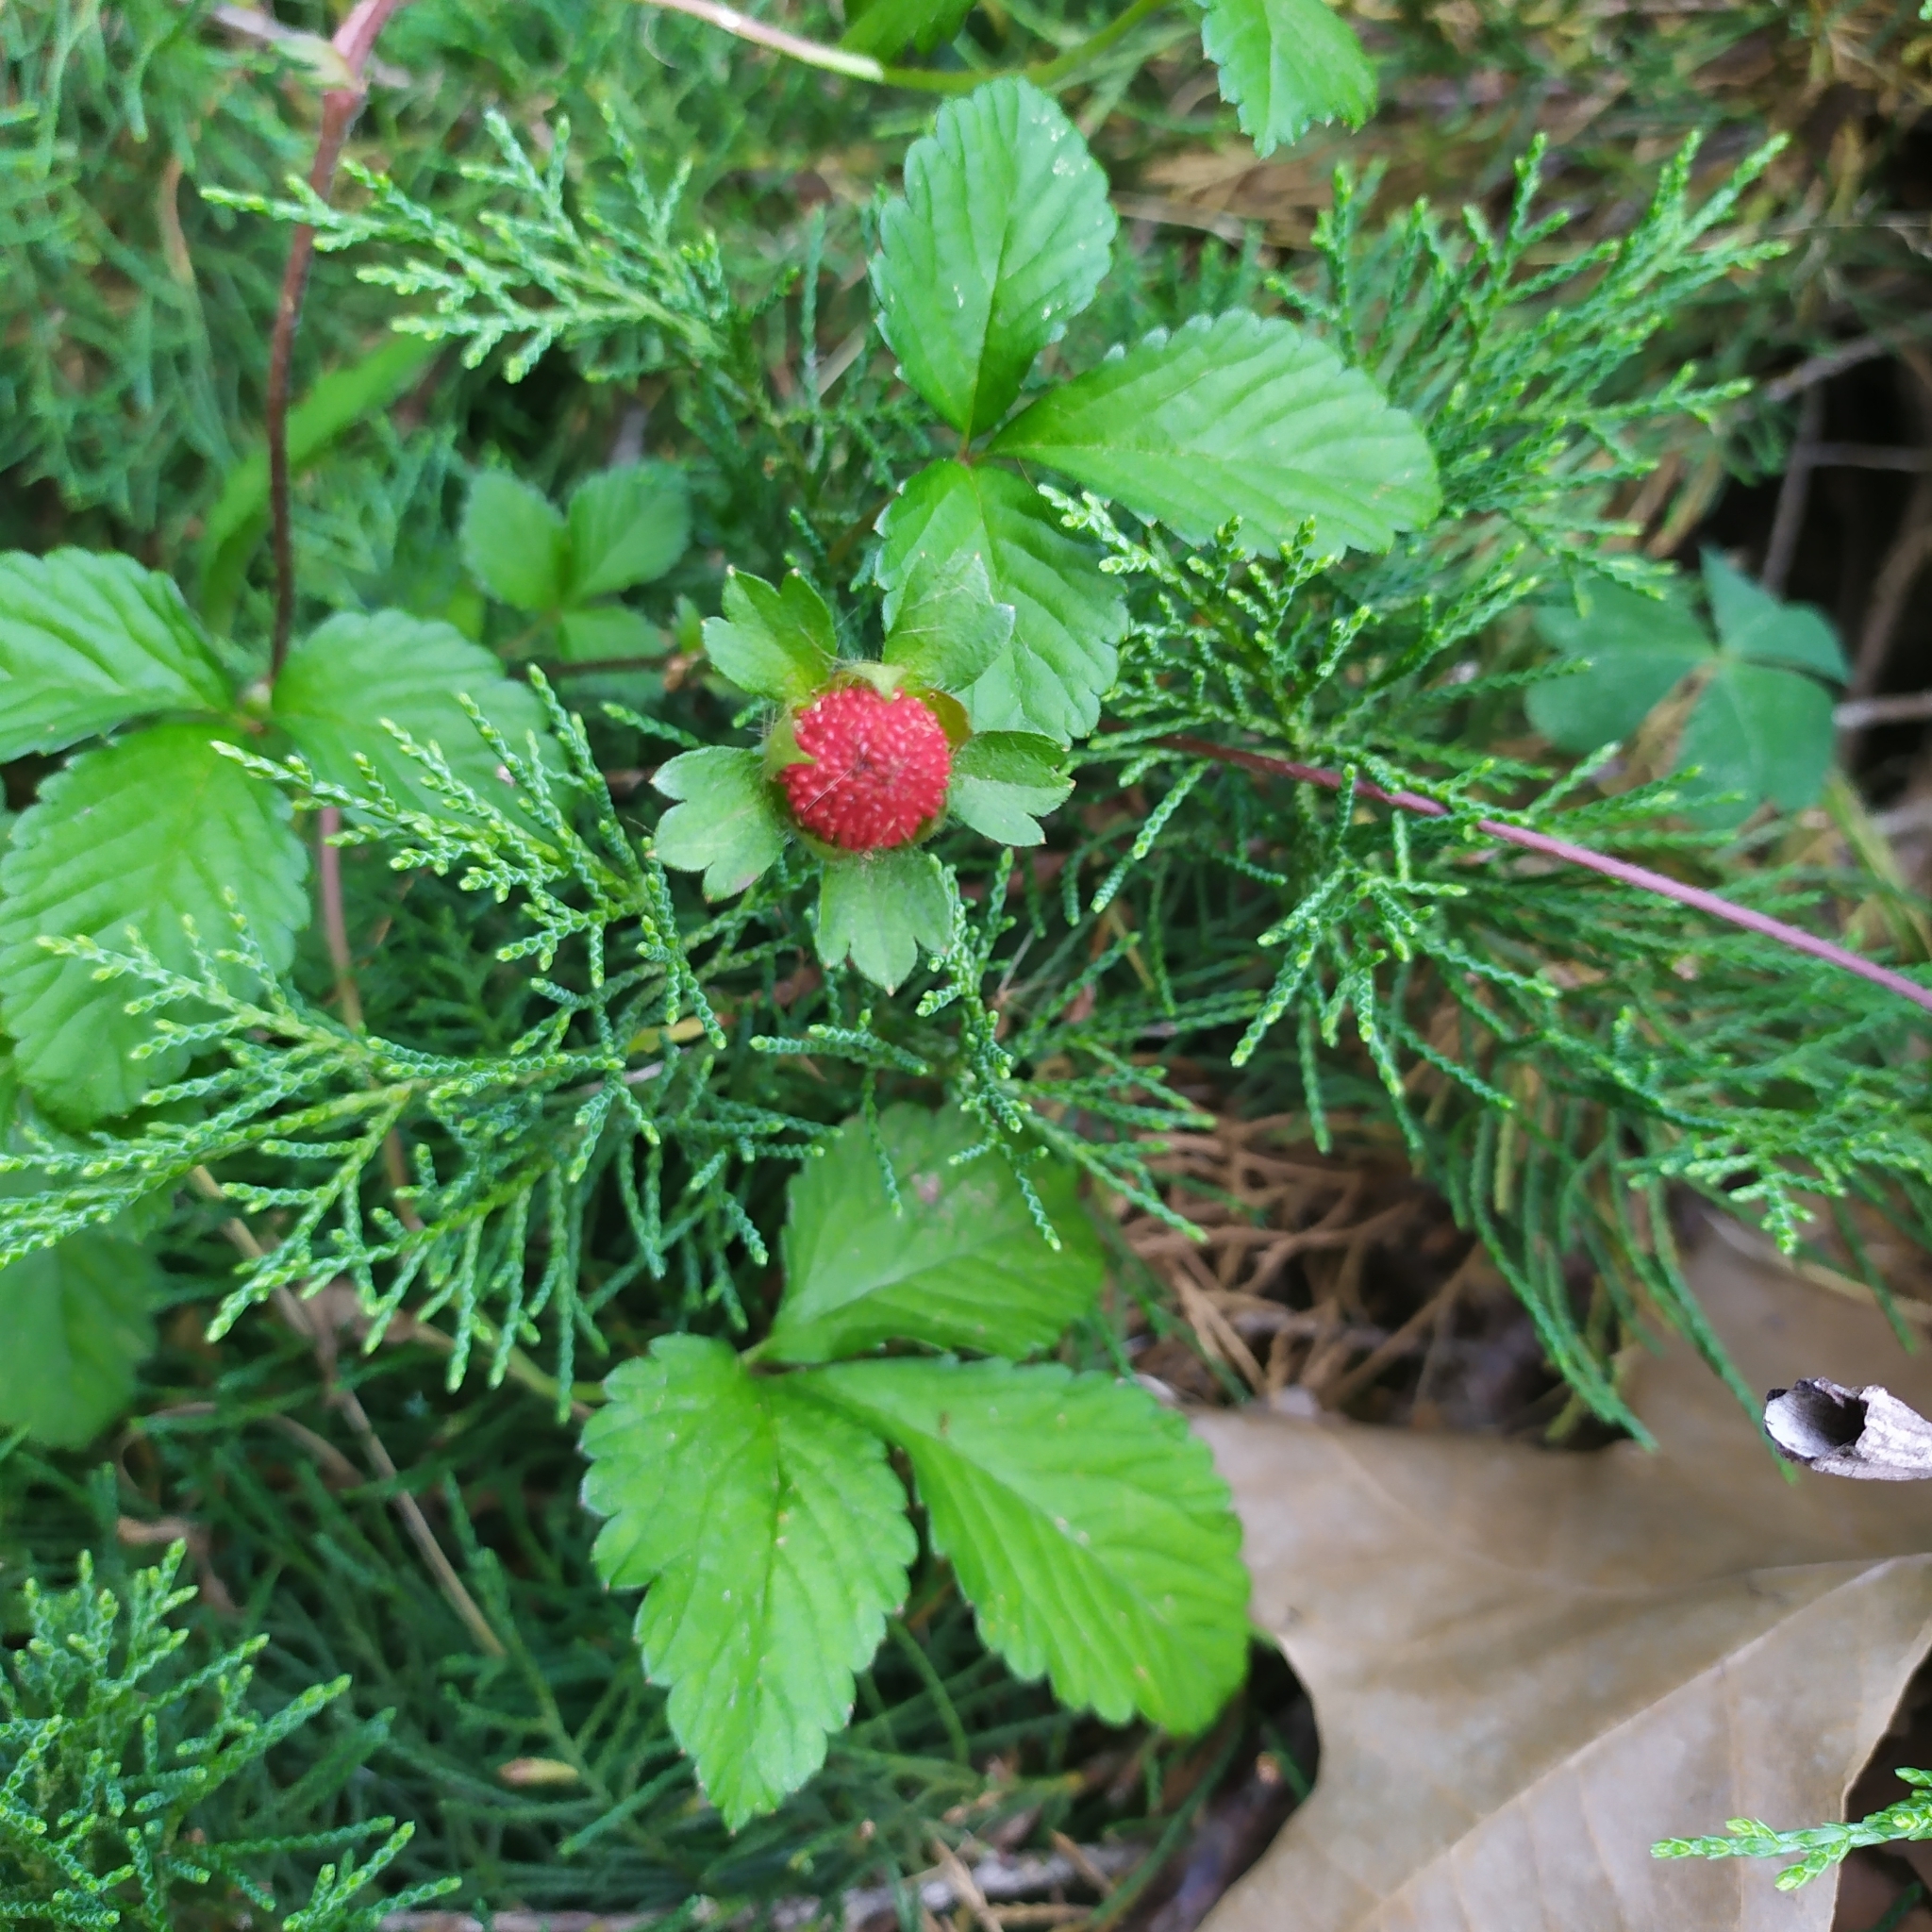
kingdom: Plantae
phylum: Tracheophyta
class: Magnoliopsida
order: Rosales
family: Rosaceae
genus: Potentilla
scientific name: Potentilla indica
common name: Yellow-flowered strawberry
